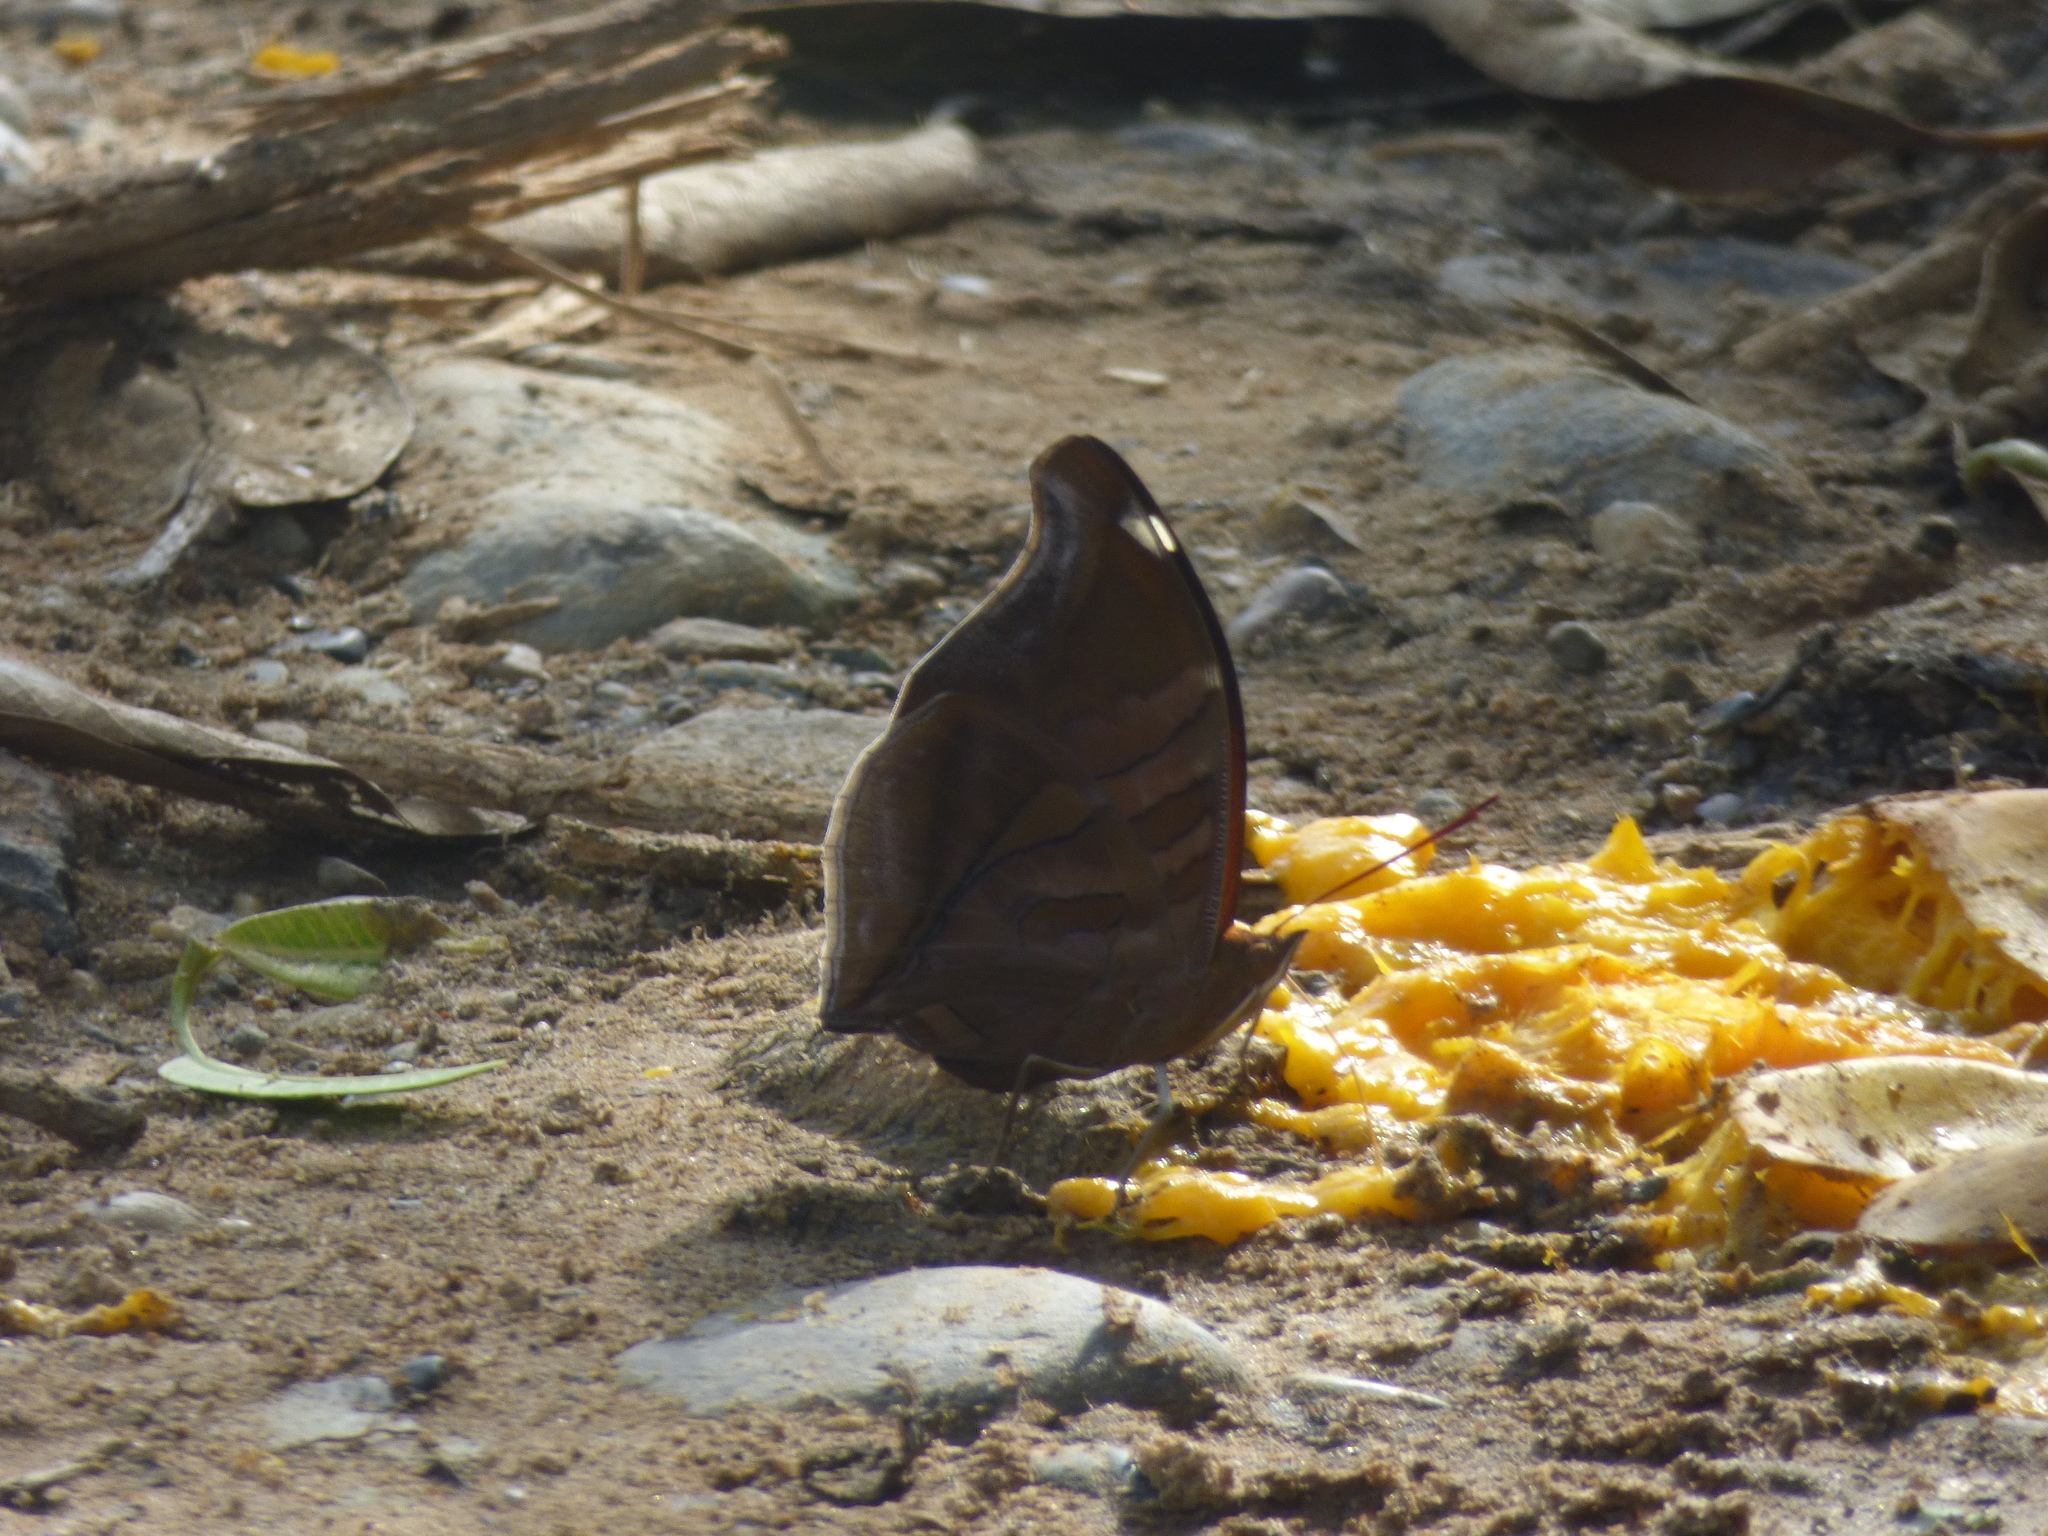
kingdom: Animalia
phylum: Arthropoda
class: Insecta
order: Lepidoptera
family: Nymphalidae
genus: Historis
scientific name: Historis odius
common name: Orion cecropian
